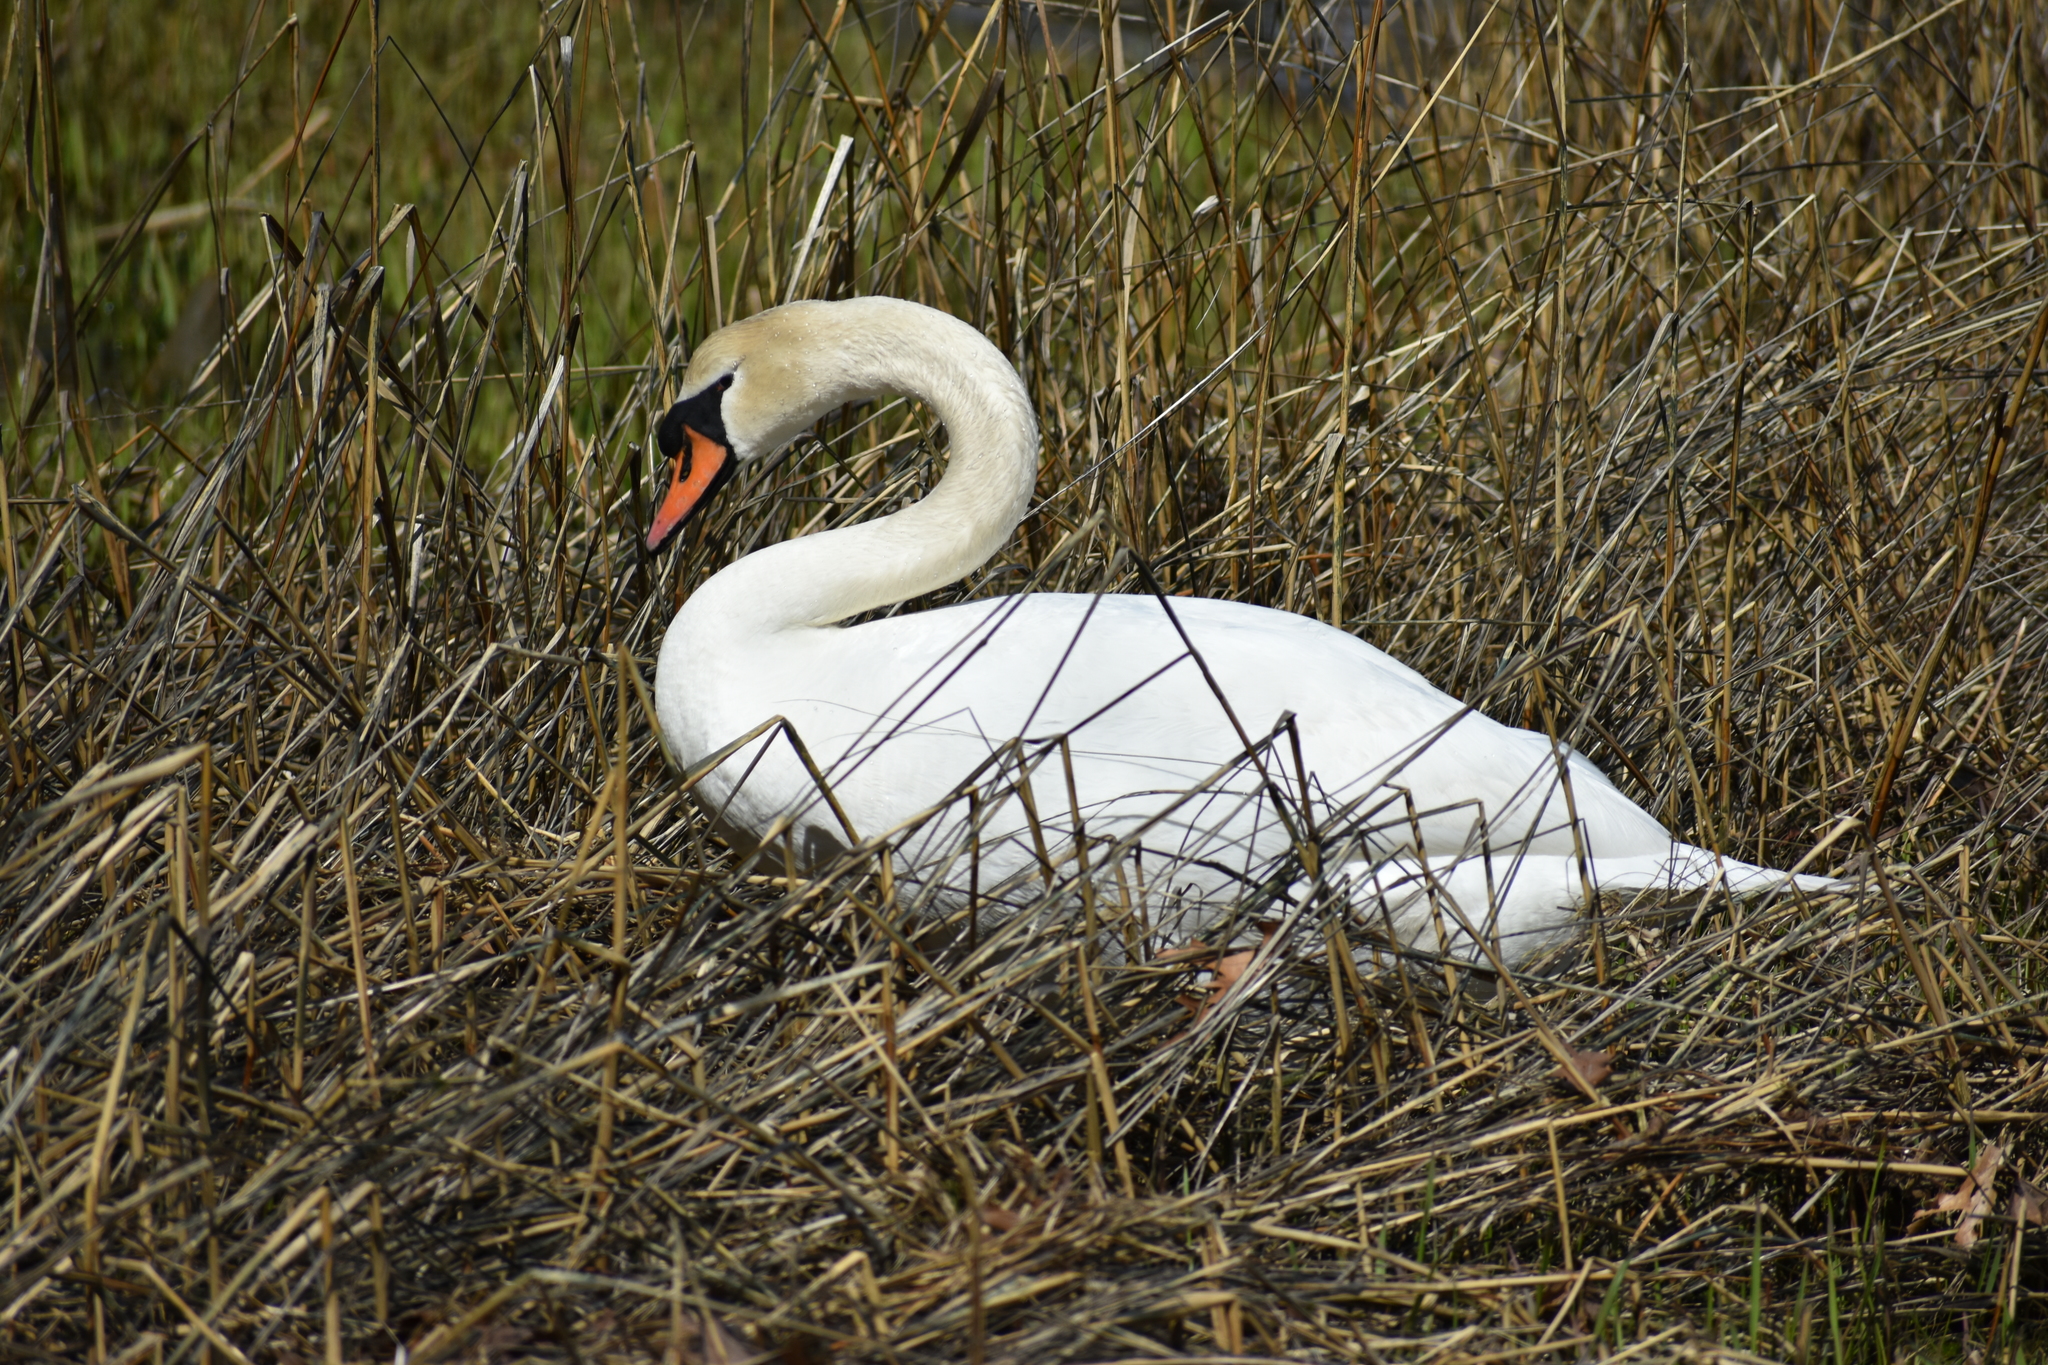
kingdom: Animalia
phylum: Chordata
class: Aves
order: Anseriformes
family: Anatidae
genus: Cygnus
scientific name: Cygnus olor
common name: Mute swan
